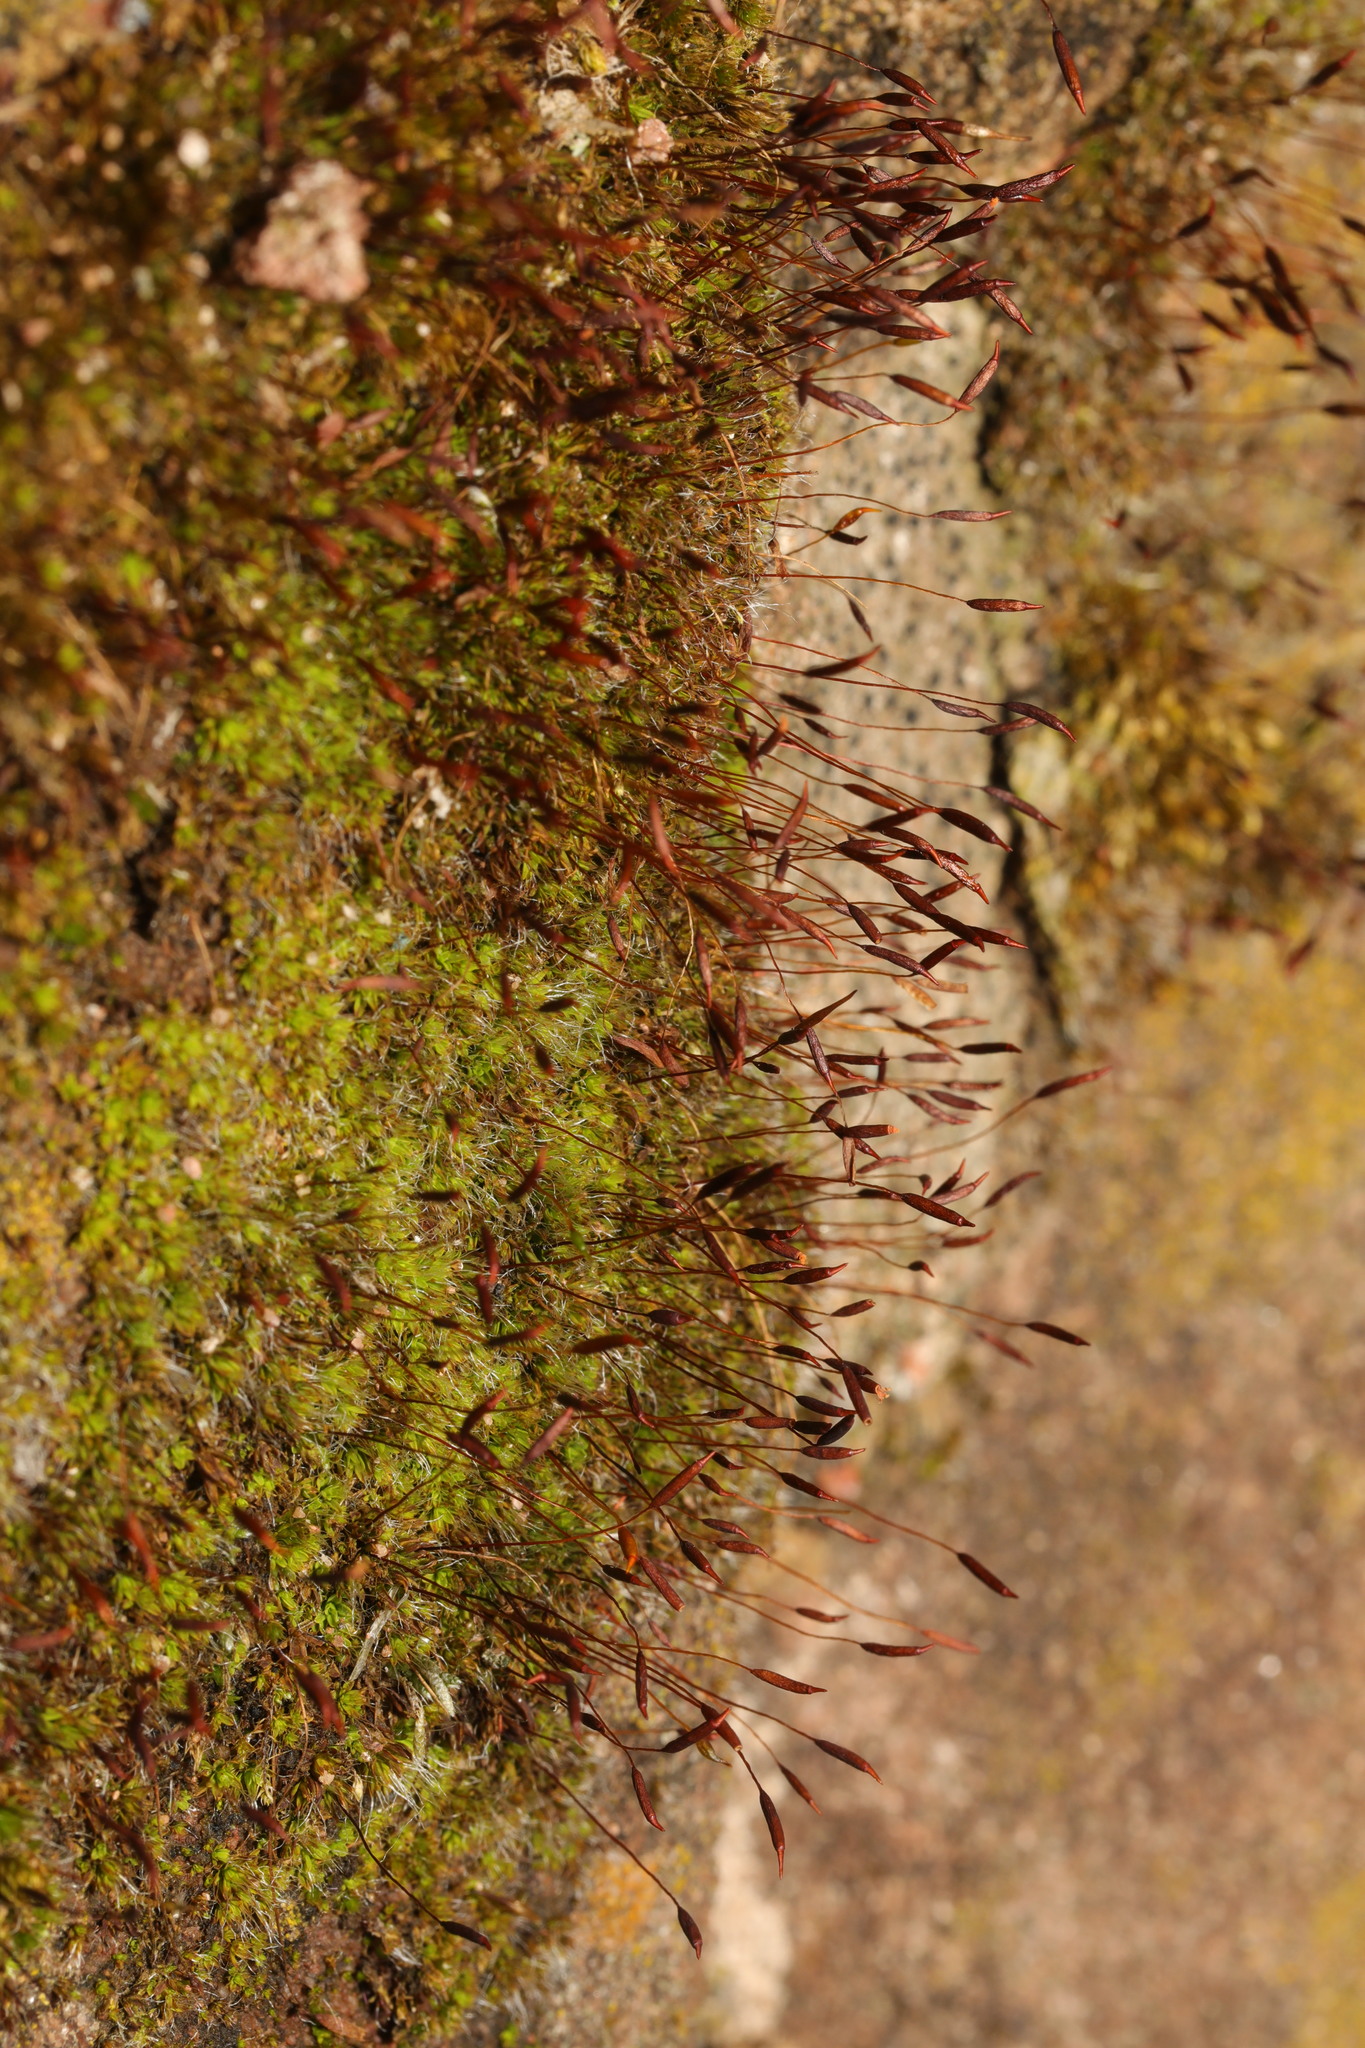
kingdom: Plantae
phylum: Bryophyta
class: Bryopsida
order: Pottiales
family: Pottiaceae
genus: Tortula
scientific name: Tortula muralis
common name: Wall screw-moss
